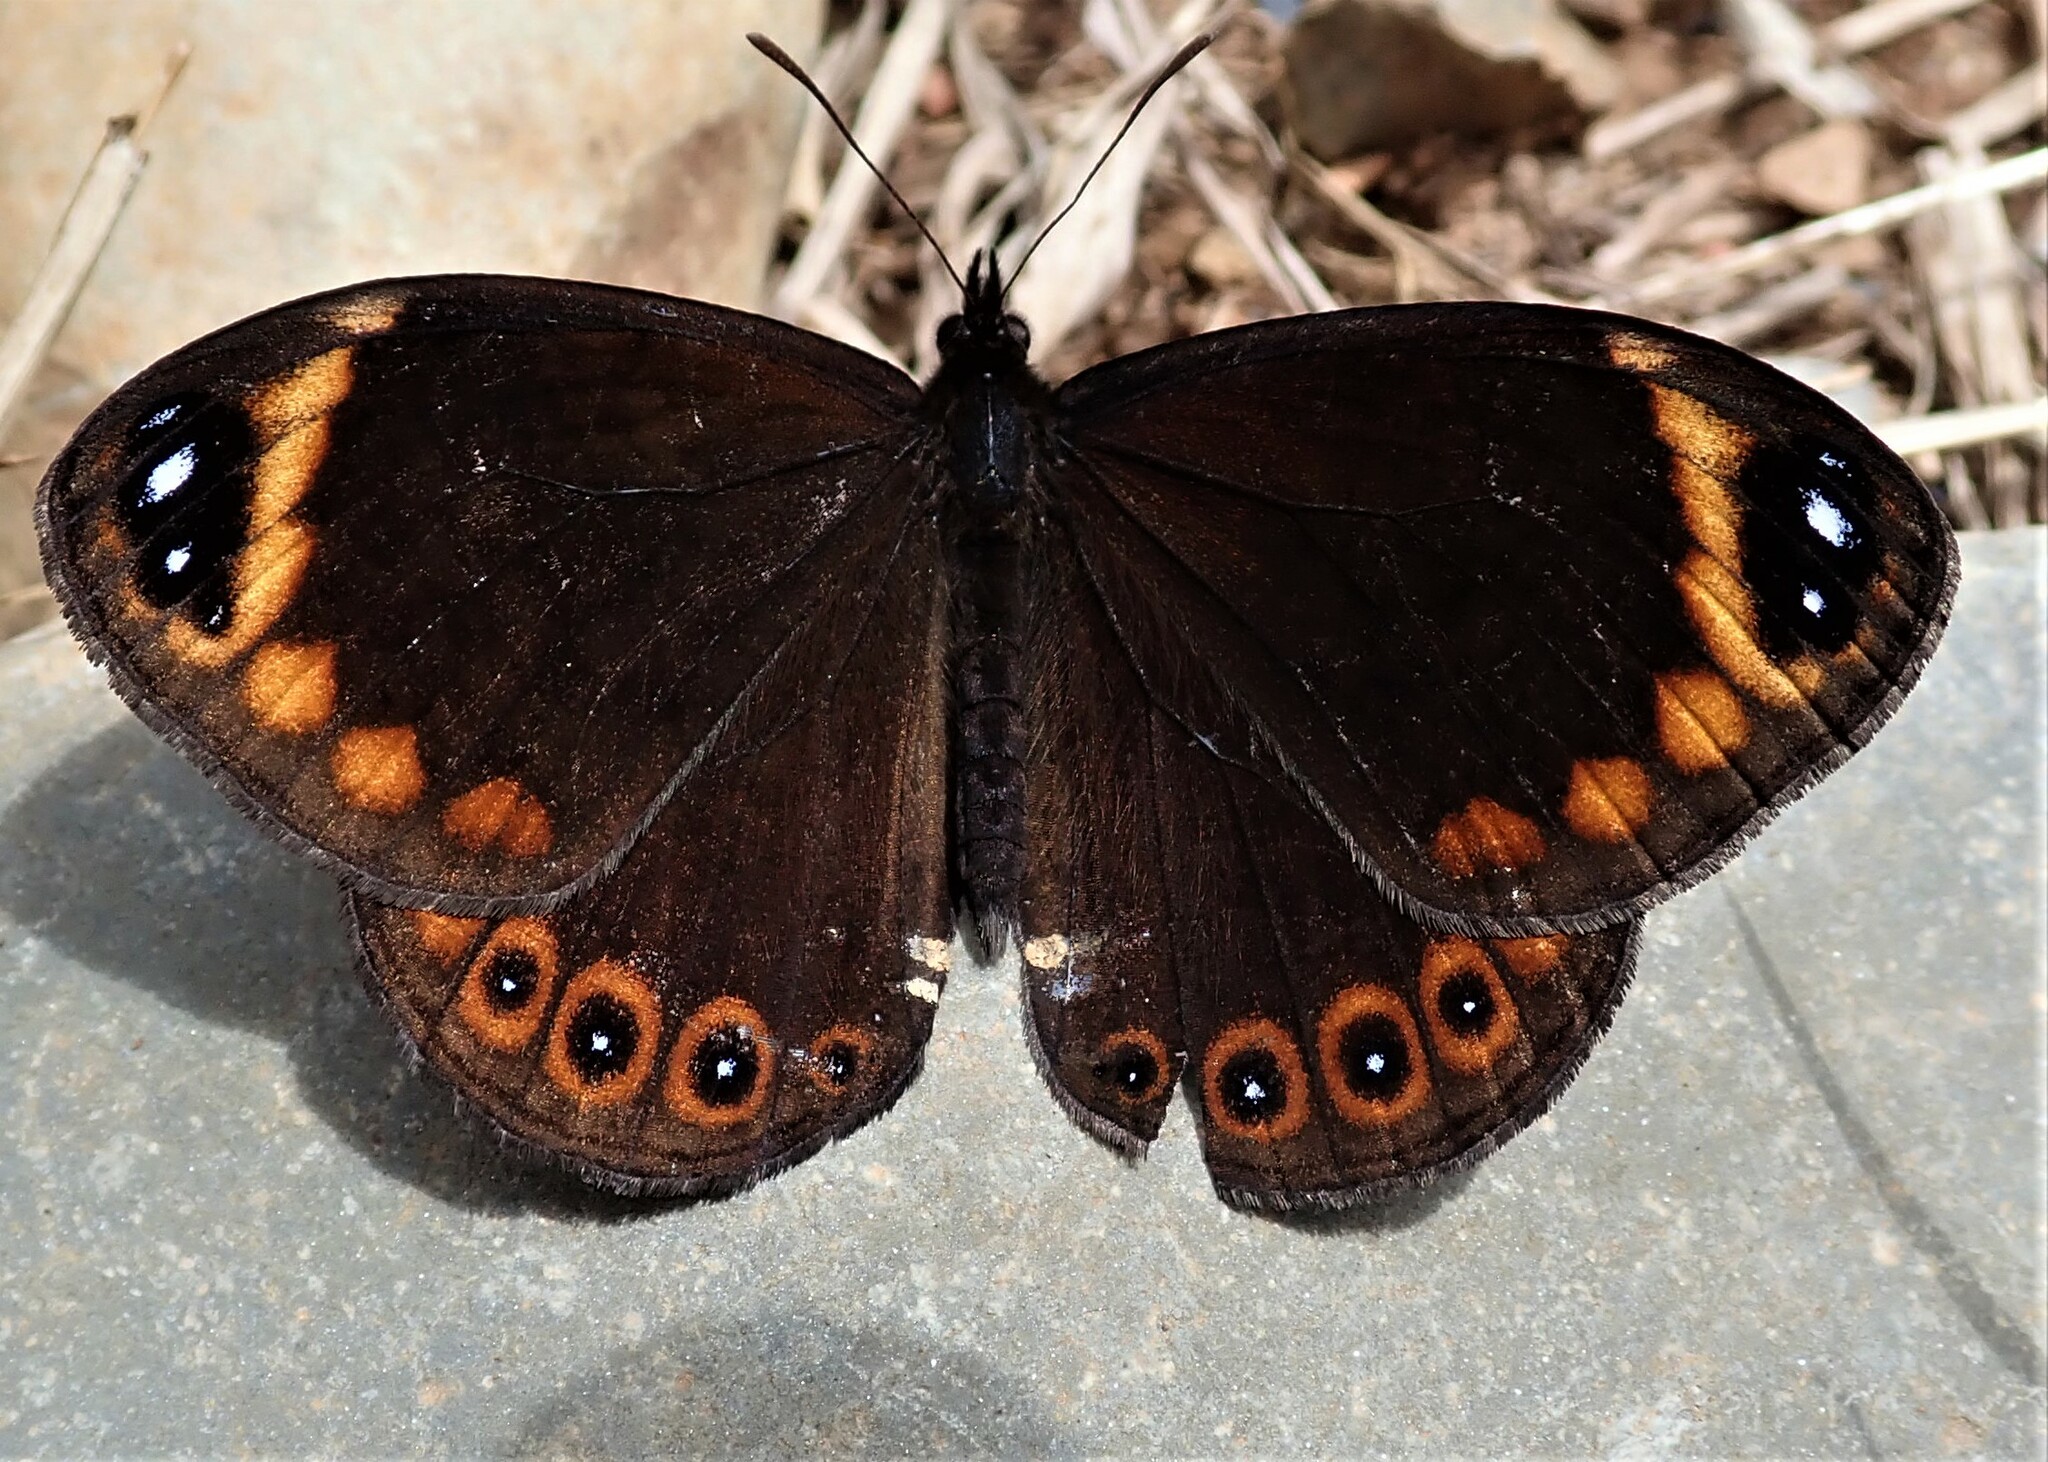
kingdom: Animalia
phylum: Arthropoda
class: Insecta
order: Lepidoptera
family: Nymphalidae
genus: Dingana
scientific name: Dingana angusta
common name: Long tom widow
